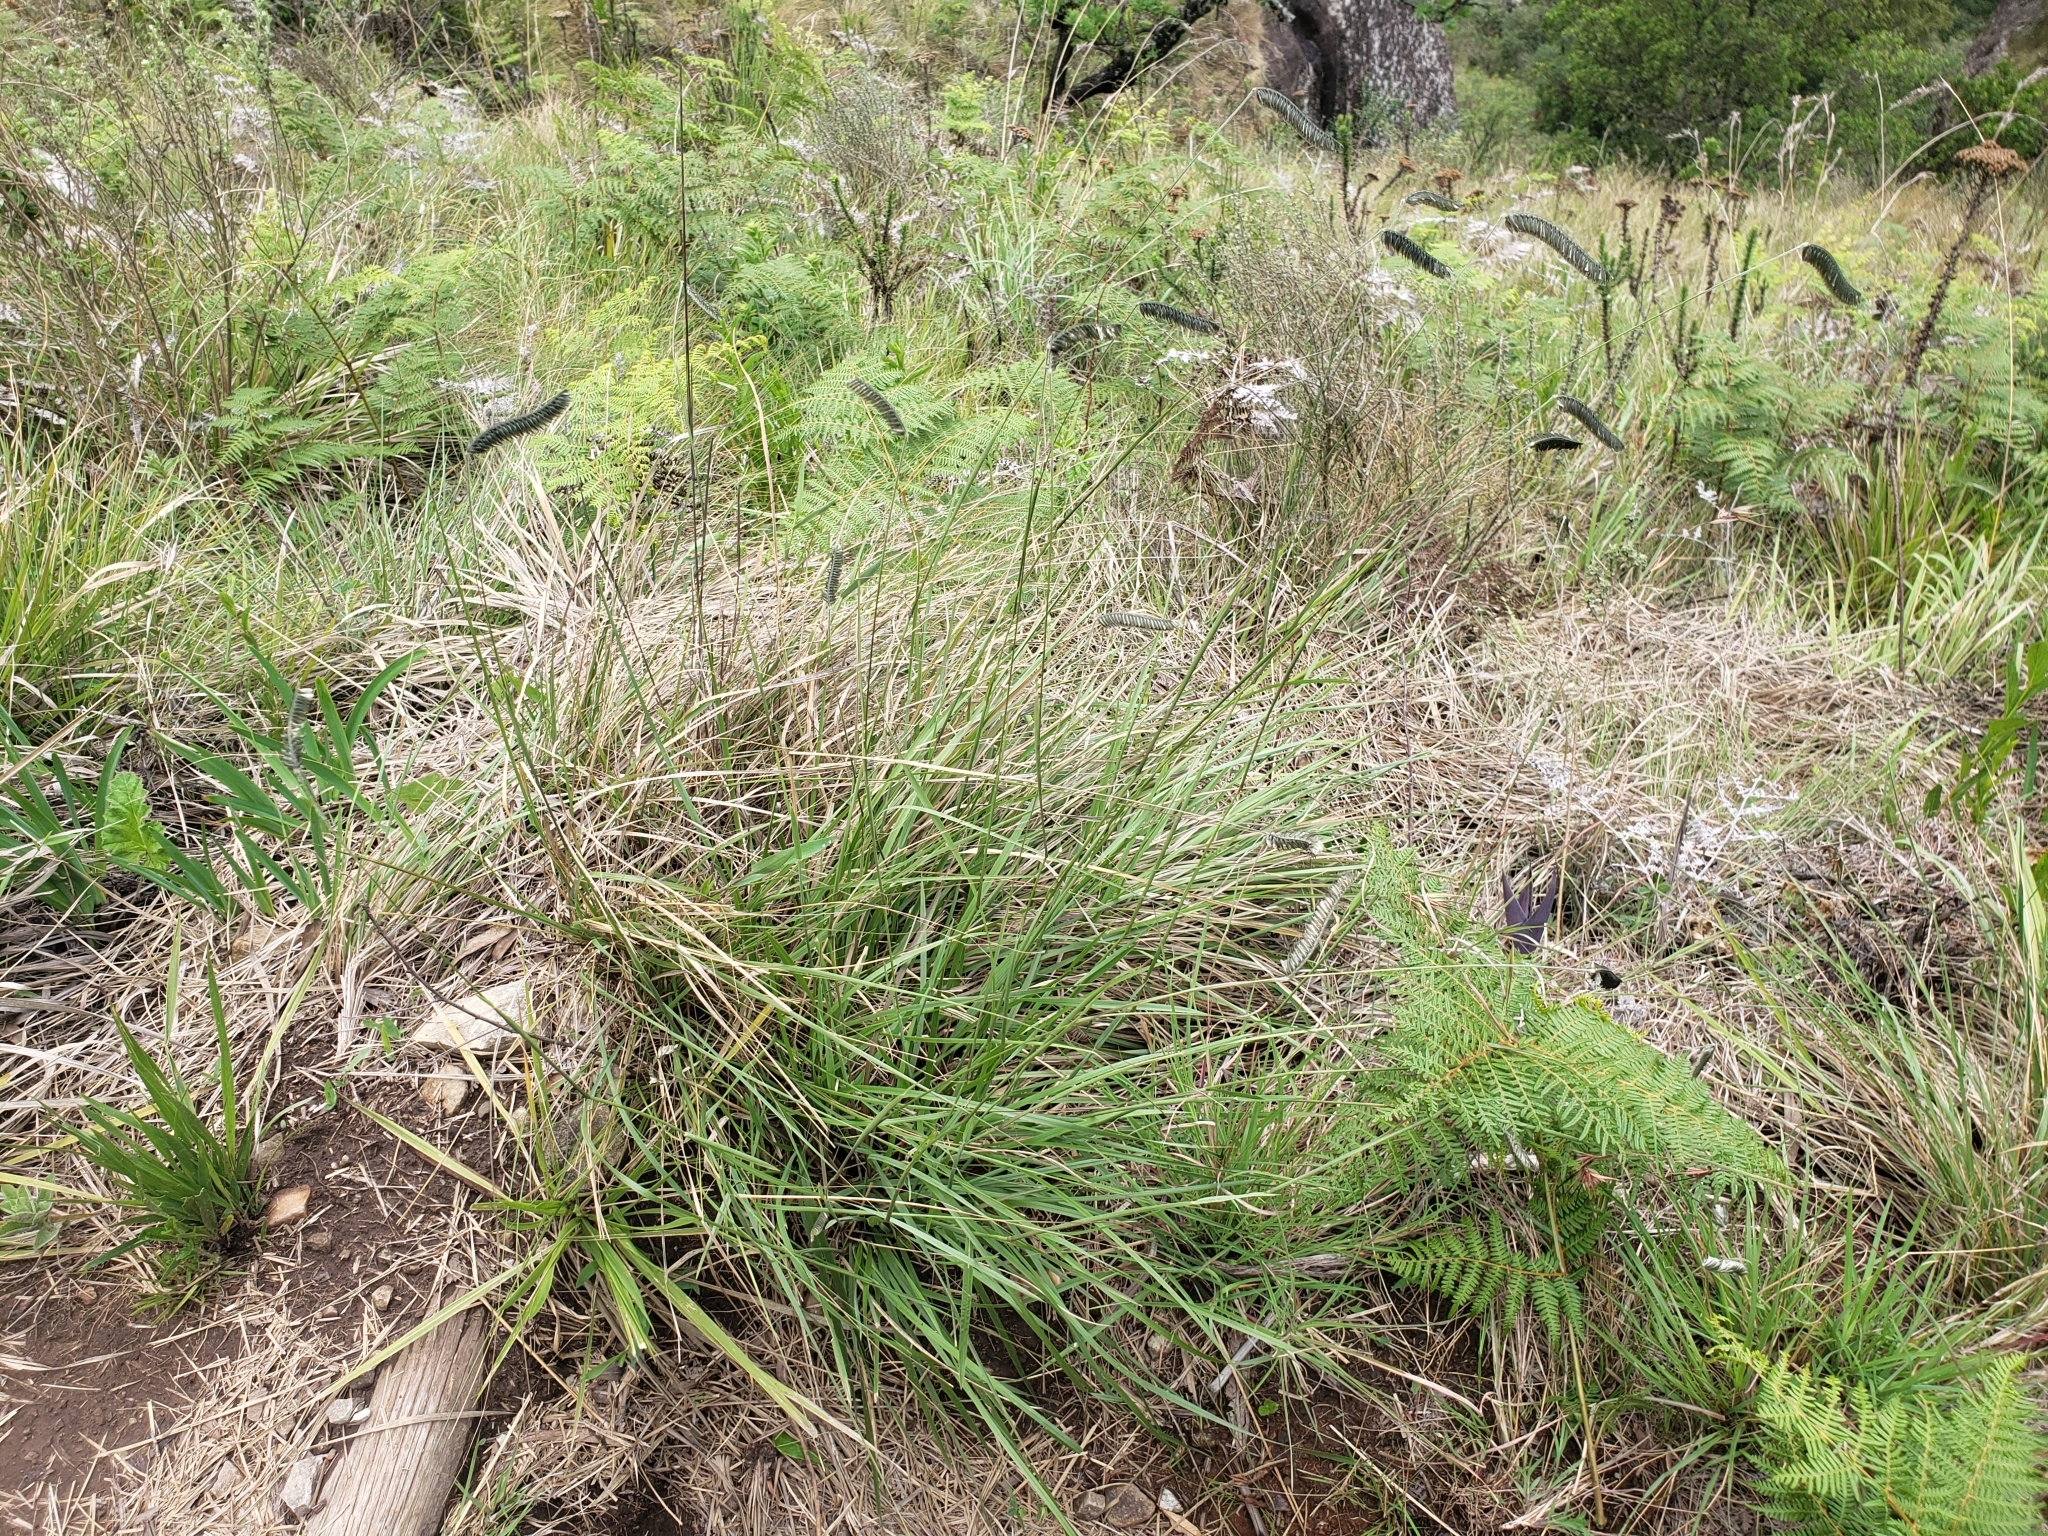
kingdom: Plantae
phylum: Tracheophyta
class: Liliopsida
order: Poales
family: Poaceae
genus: Harpochloa
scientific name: Harpochloa falx
